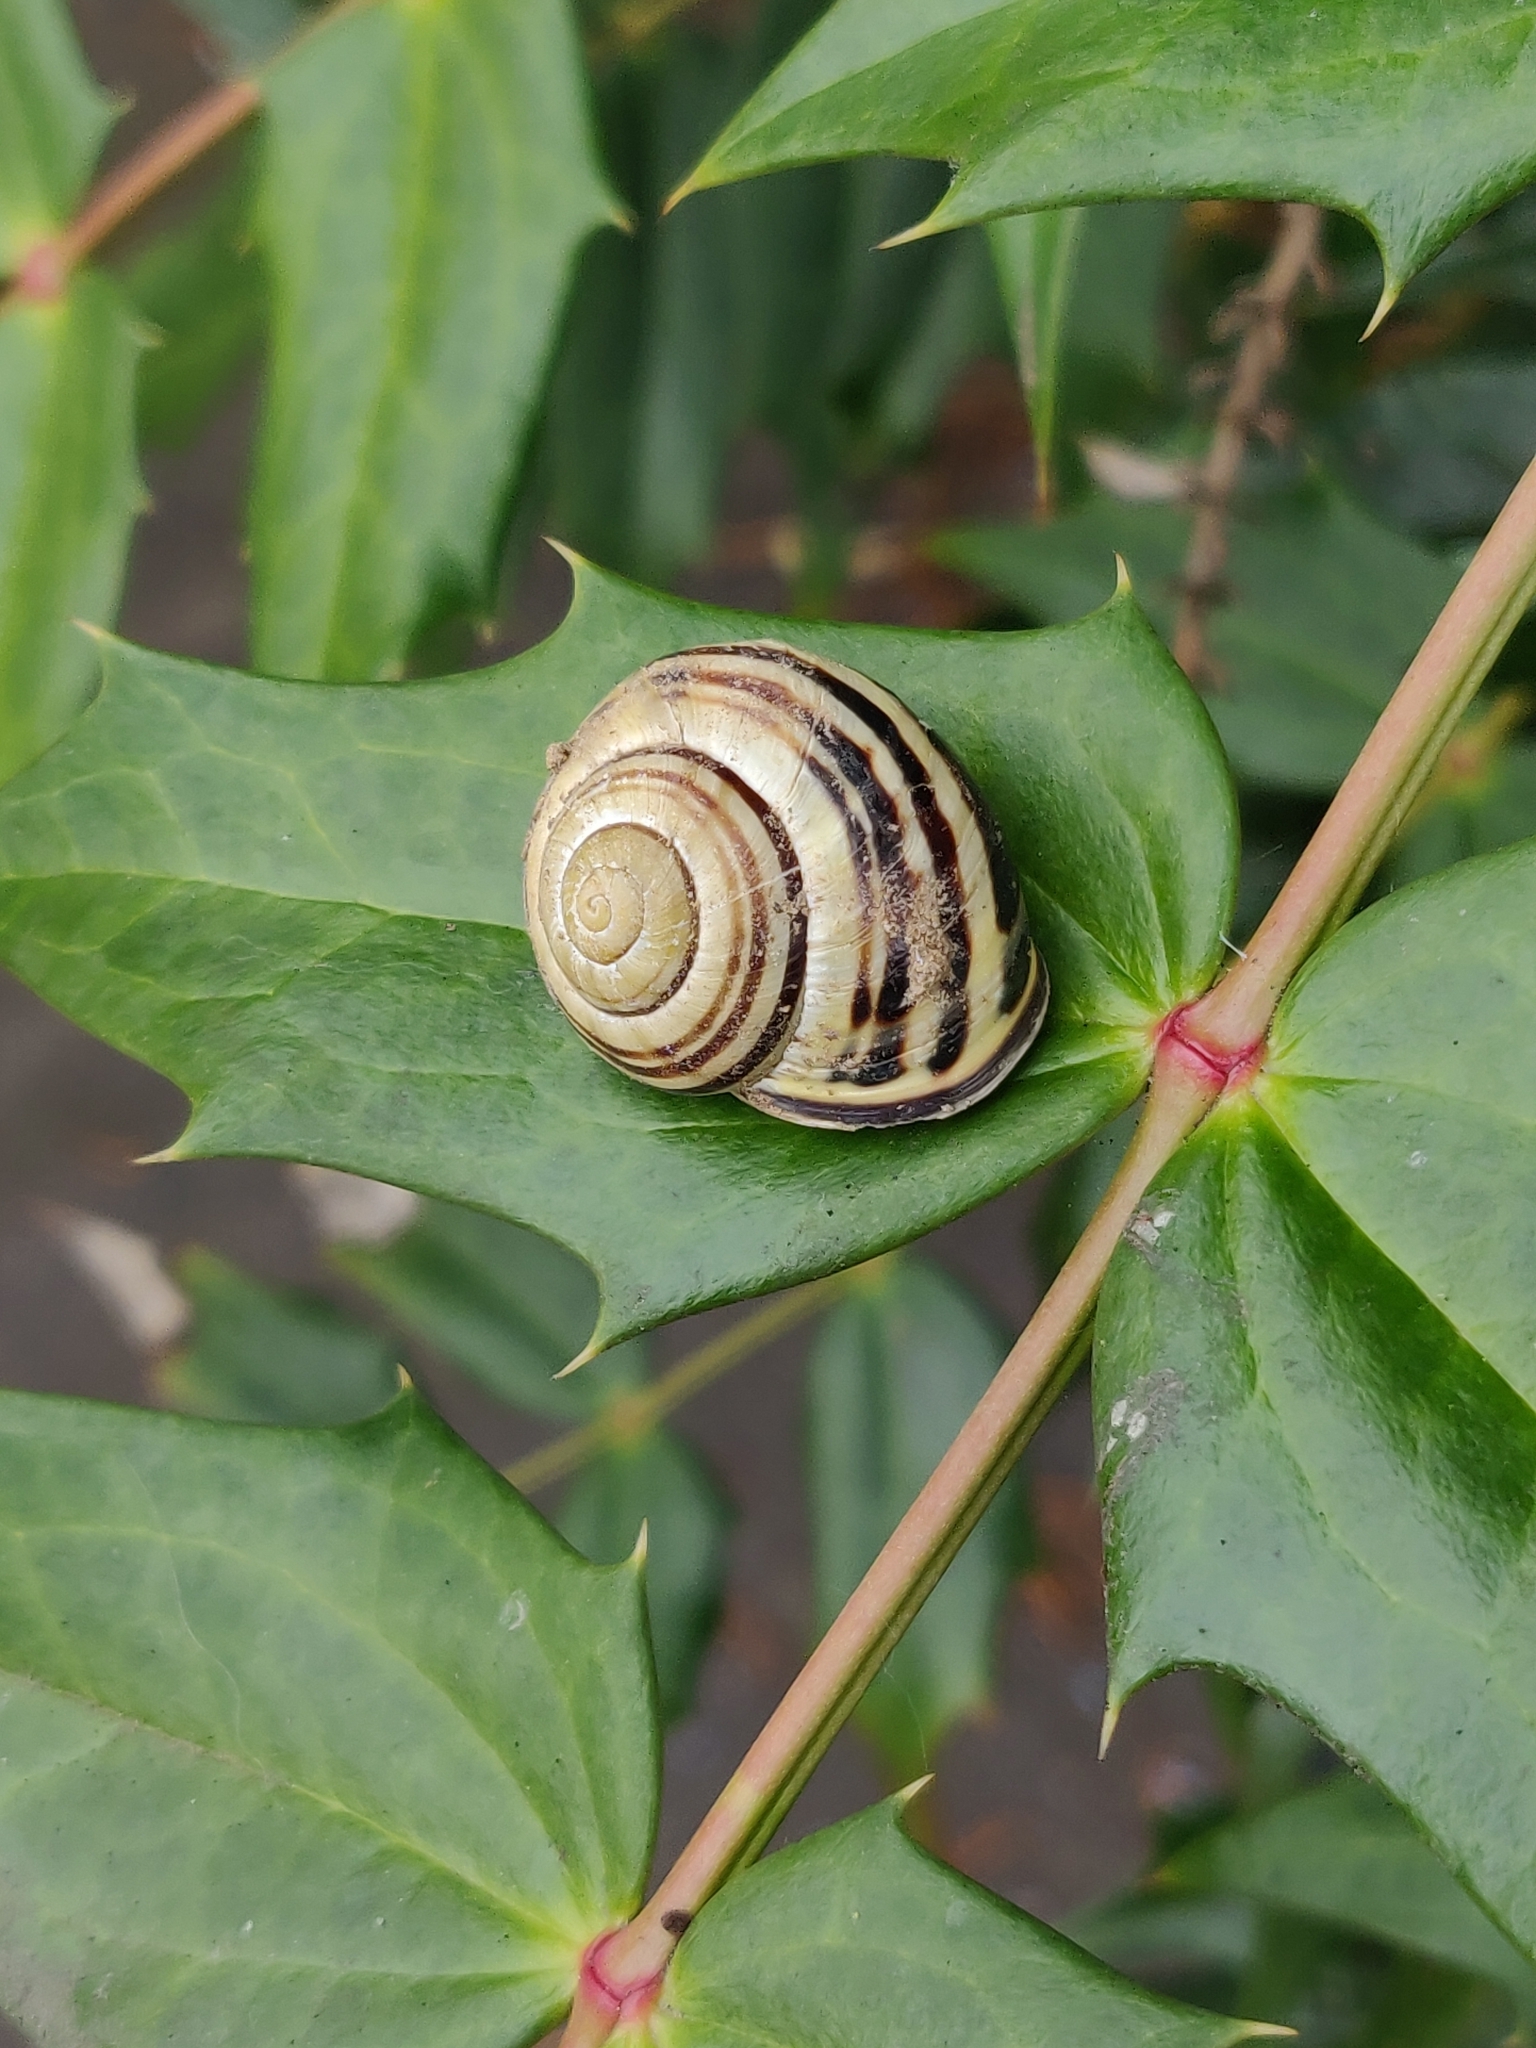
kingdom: Animalia
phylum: Mollusca
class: Gastropoda
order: Stylommatophora
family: Helicidae
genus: Cepaea
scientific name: Cepaea nemoralis
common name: Grovesnail
